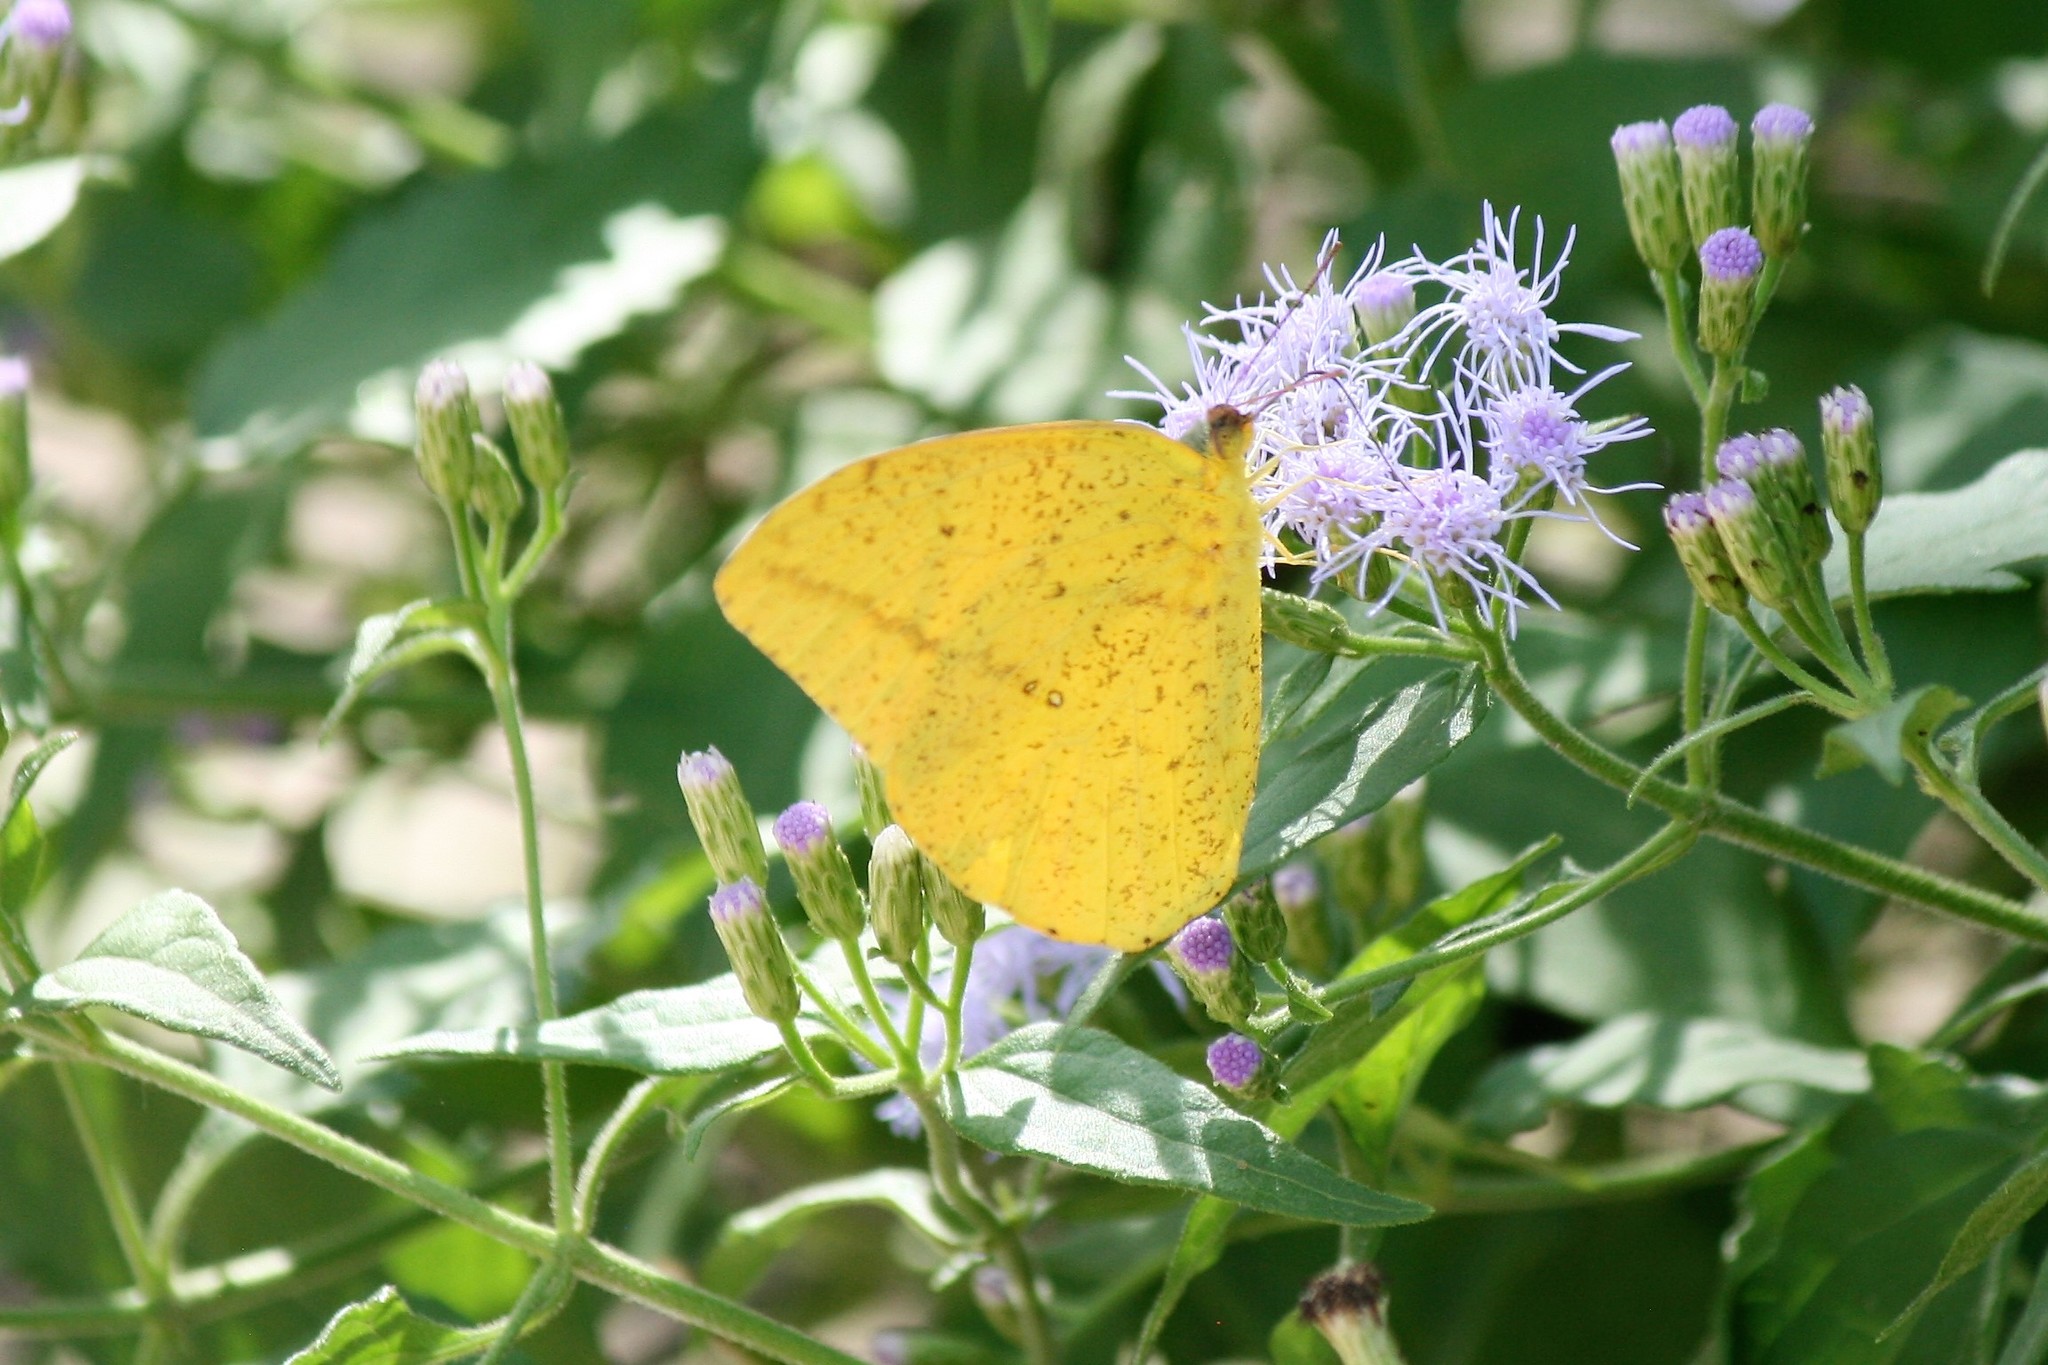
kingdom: Animalia
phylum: Arthropoda
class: Insecta
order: Lepidoptera
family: Pieridae
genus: Phoebis
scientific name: Phoebis agarithe
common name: Large orange sulphur
